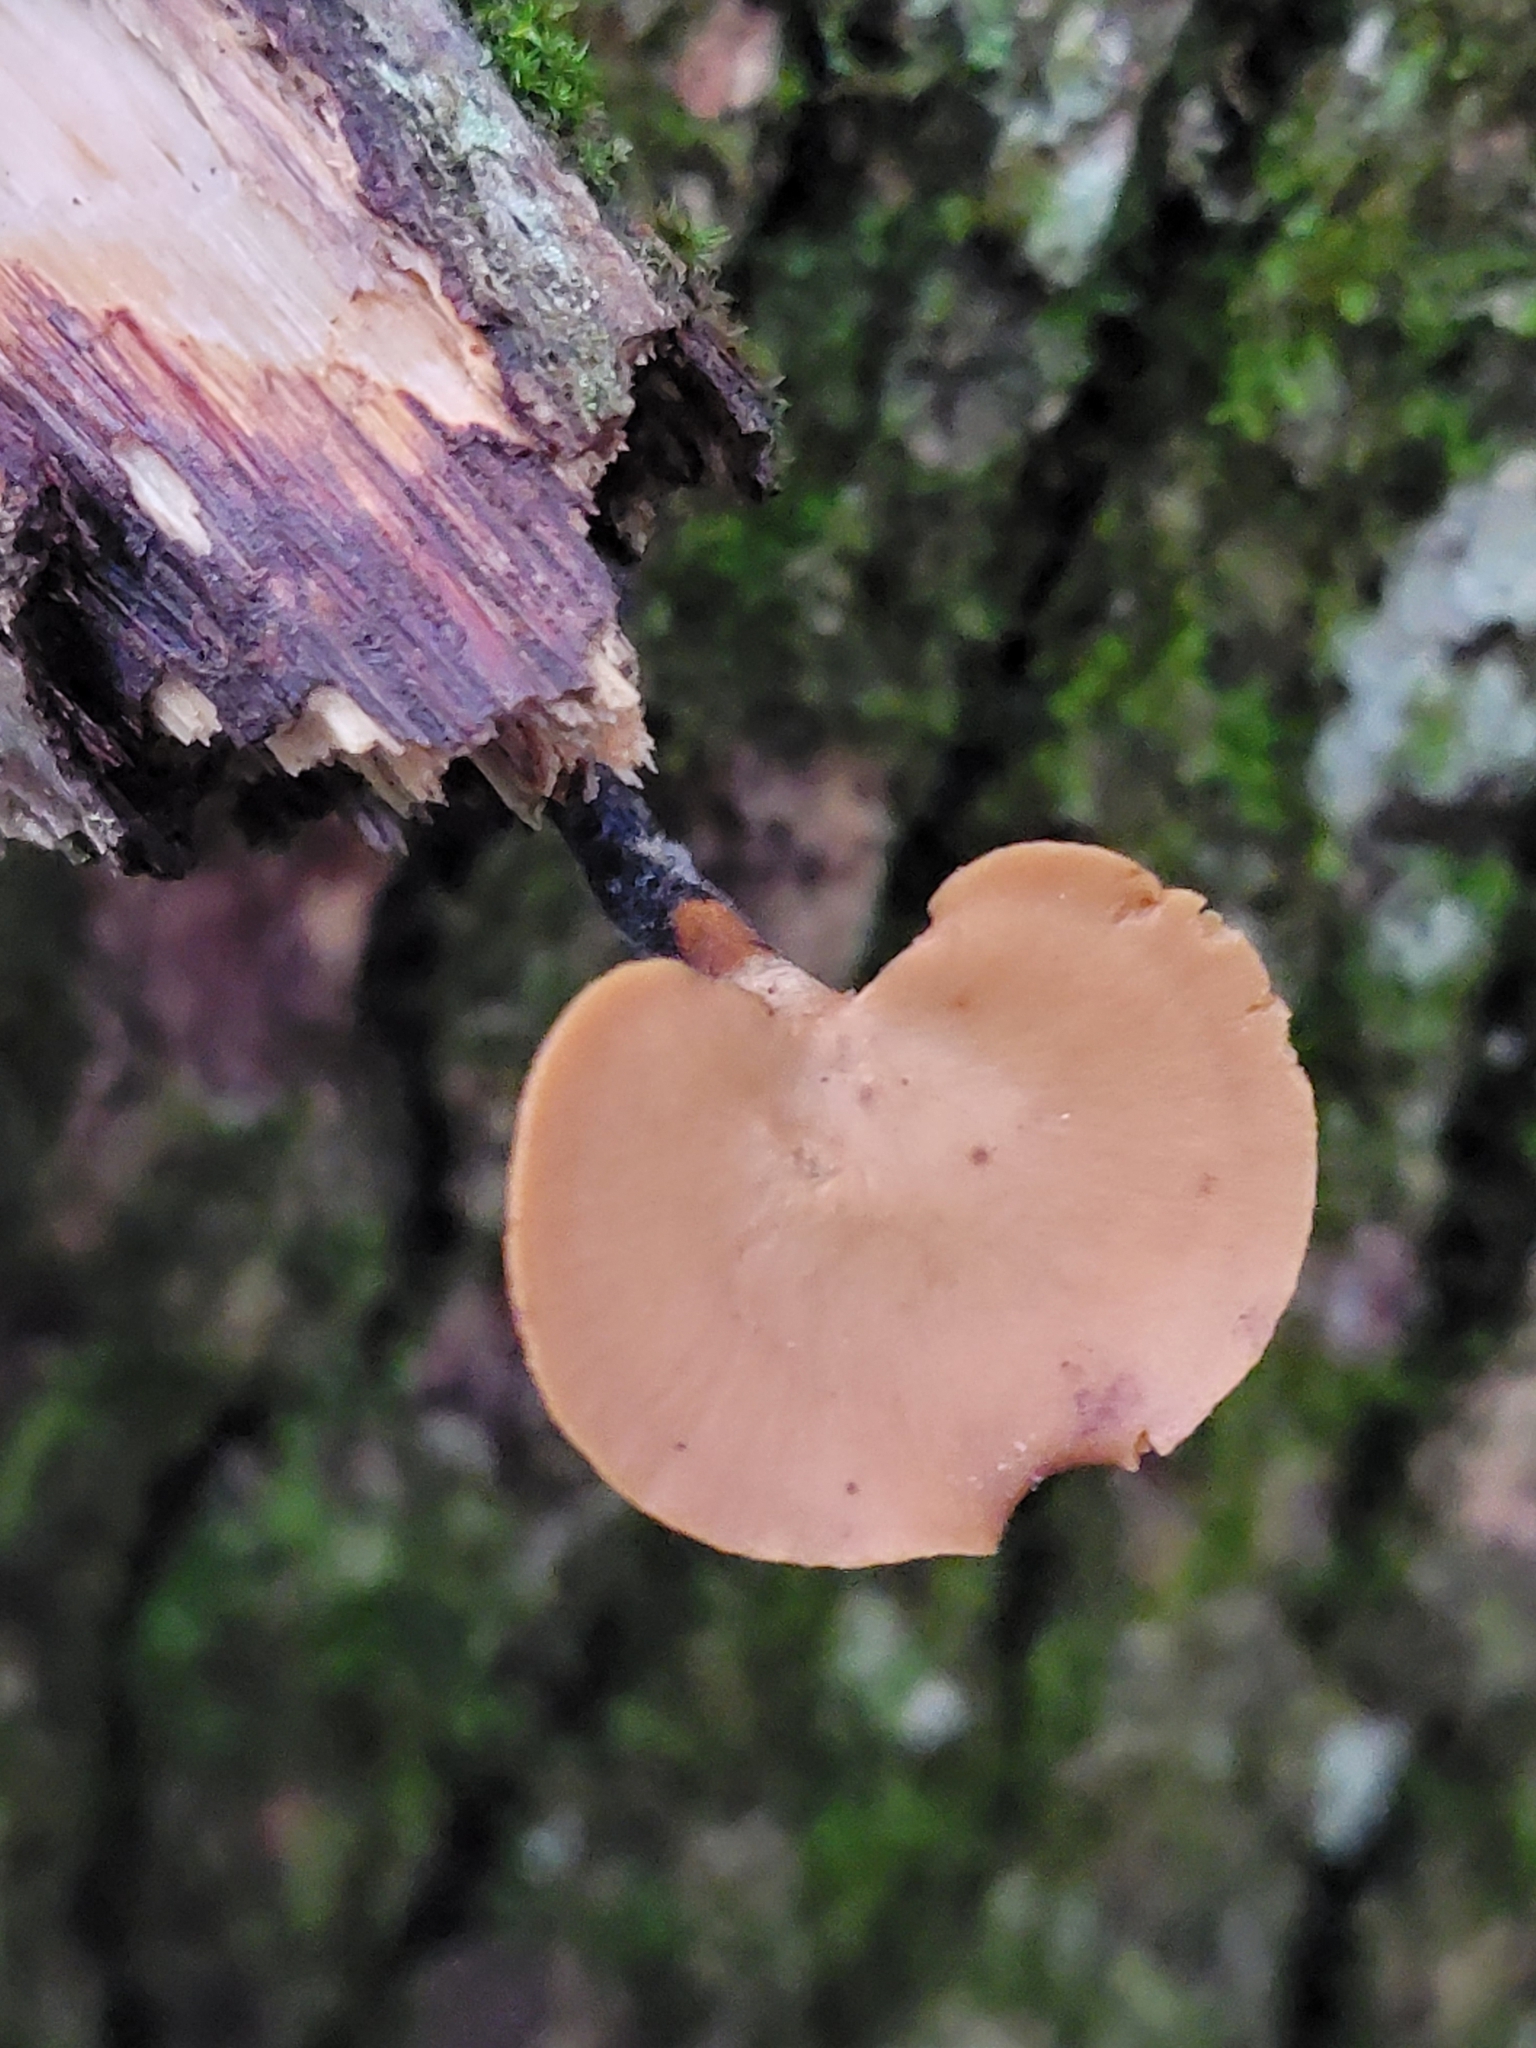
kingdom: Fungi
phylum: Basidiomycota
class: Agaricomycetes
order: Polyporales
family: Polyporaceae
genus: Cerioporus
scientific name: Cerioporus leptocephalus
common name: Blackfoot polypore
